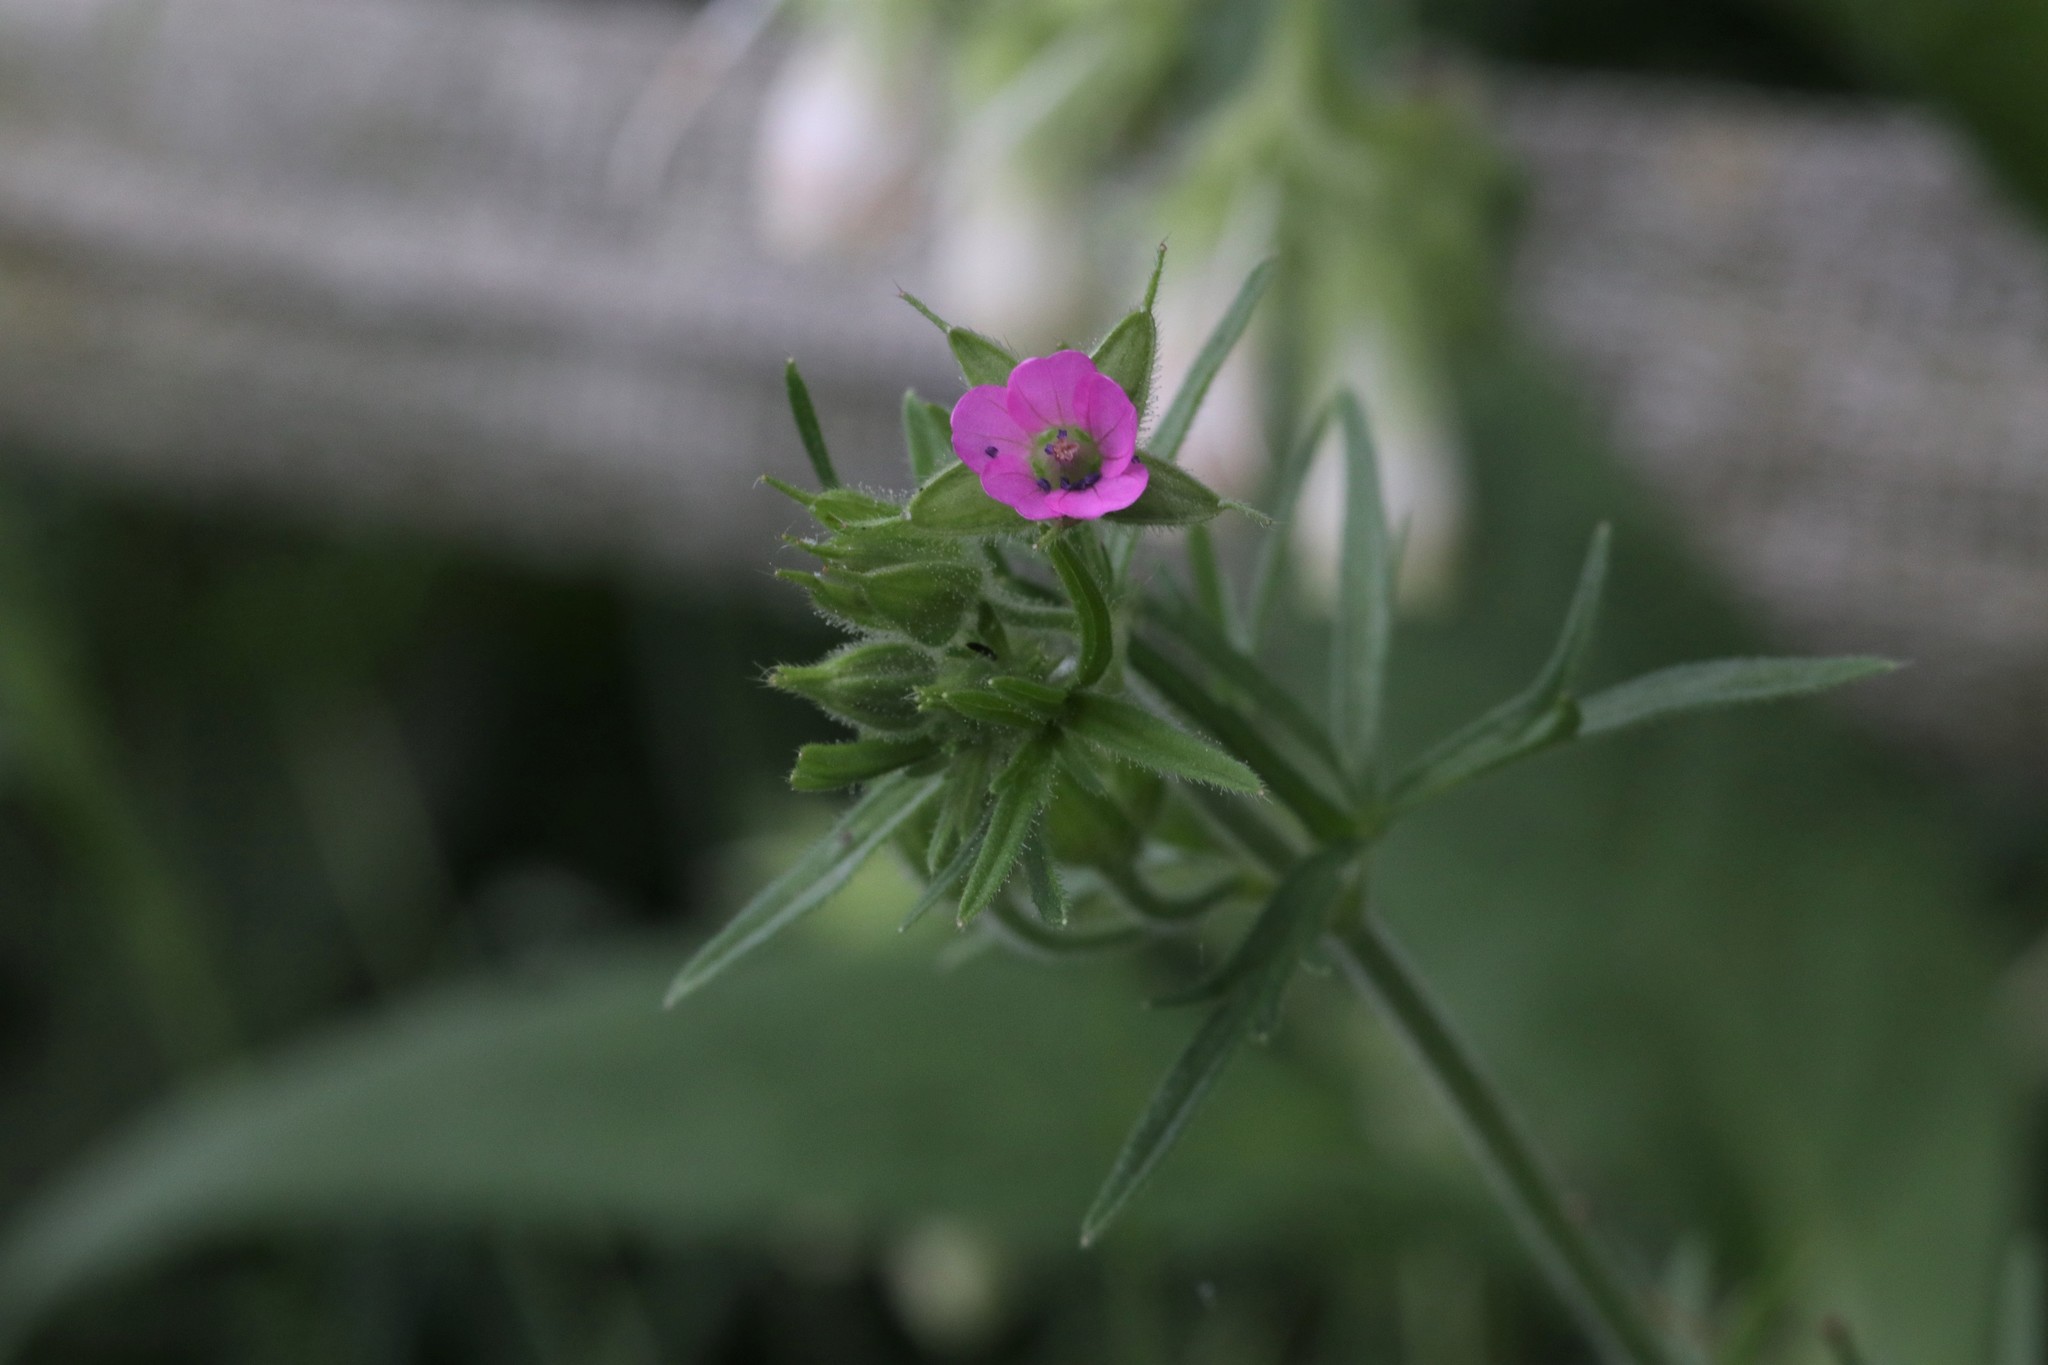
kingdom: Plantae
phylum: Tracheophyta
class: Magnoliopsida
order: Geraniales
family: Geraniaceae
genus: Geranium
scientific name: Geranium dissectum
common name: Cut-leaved crane's-bill
